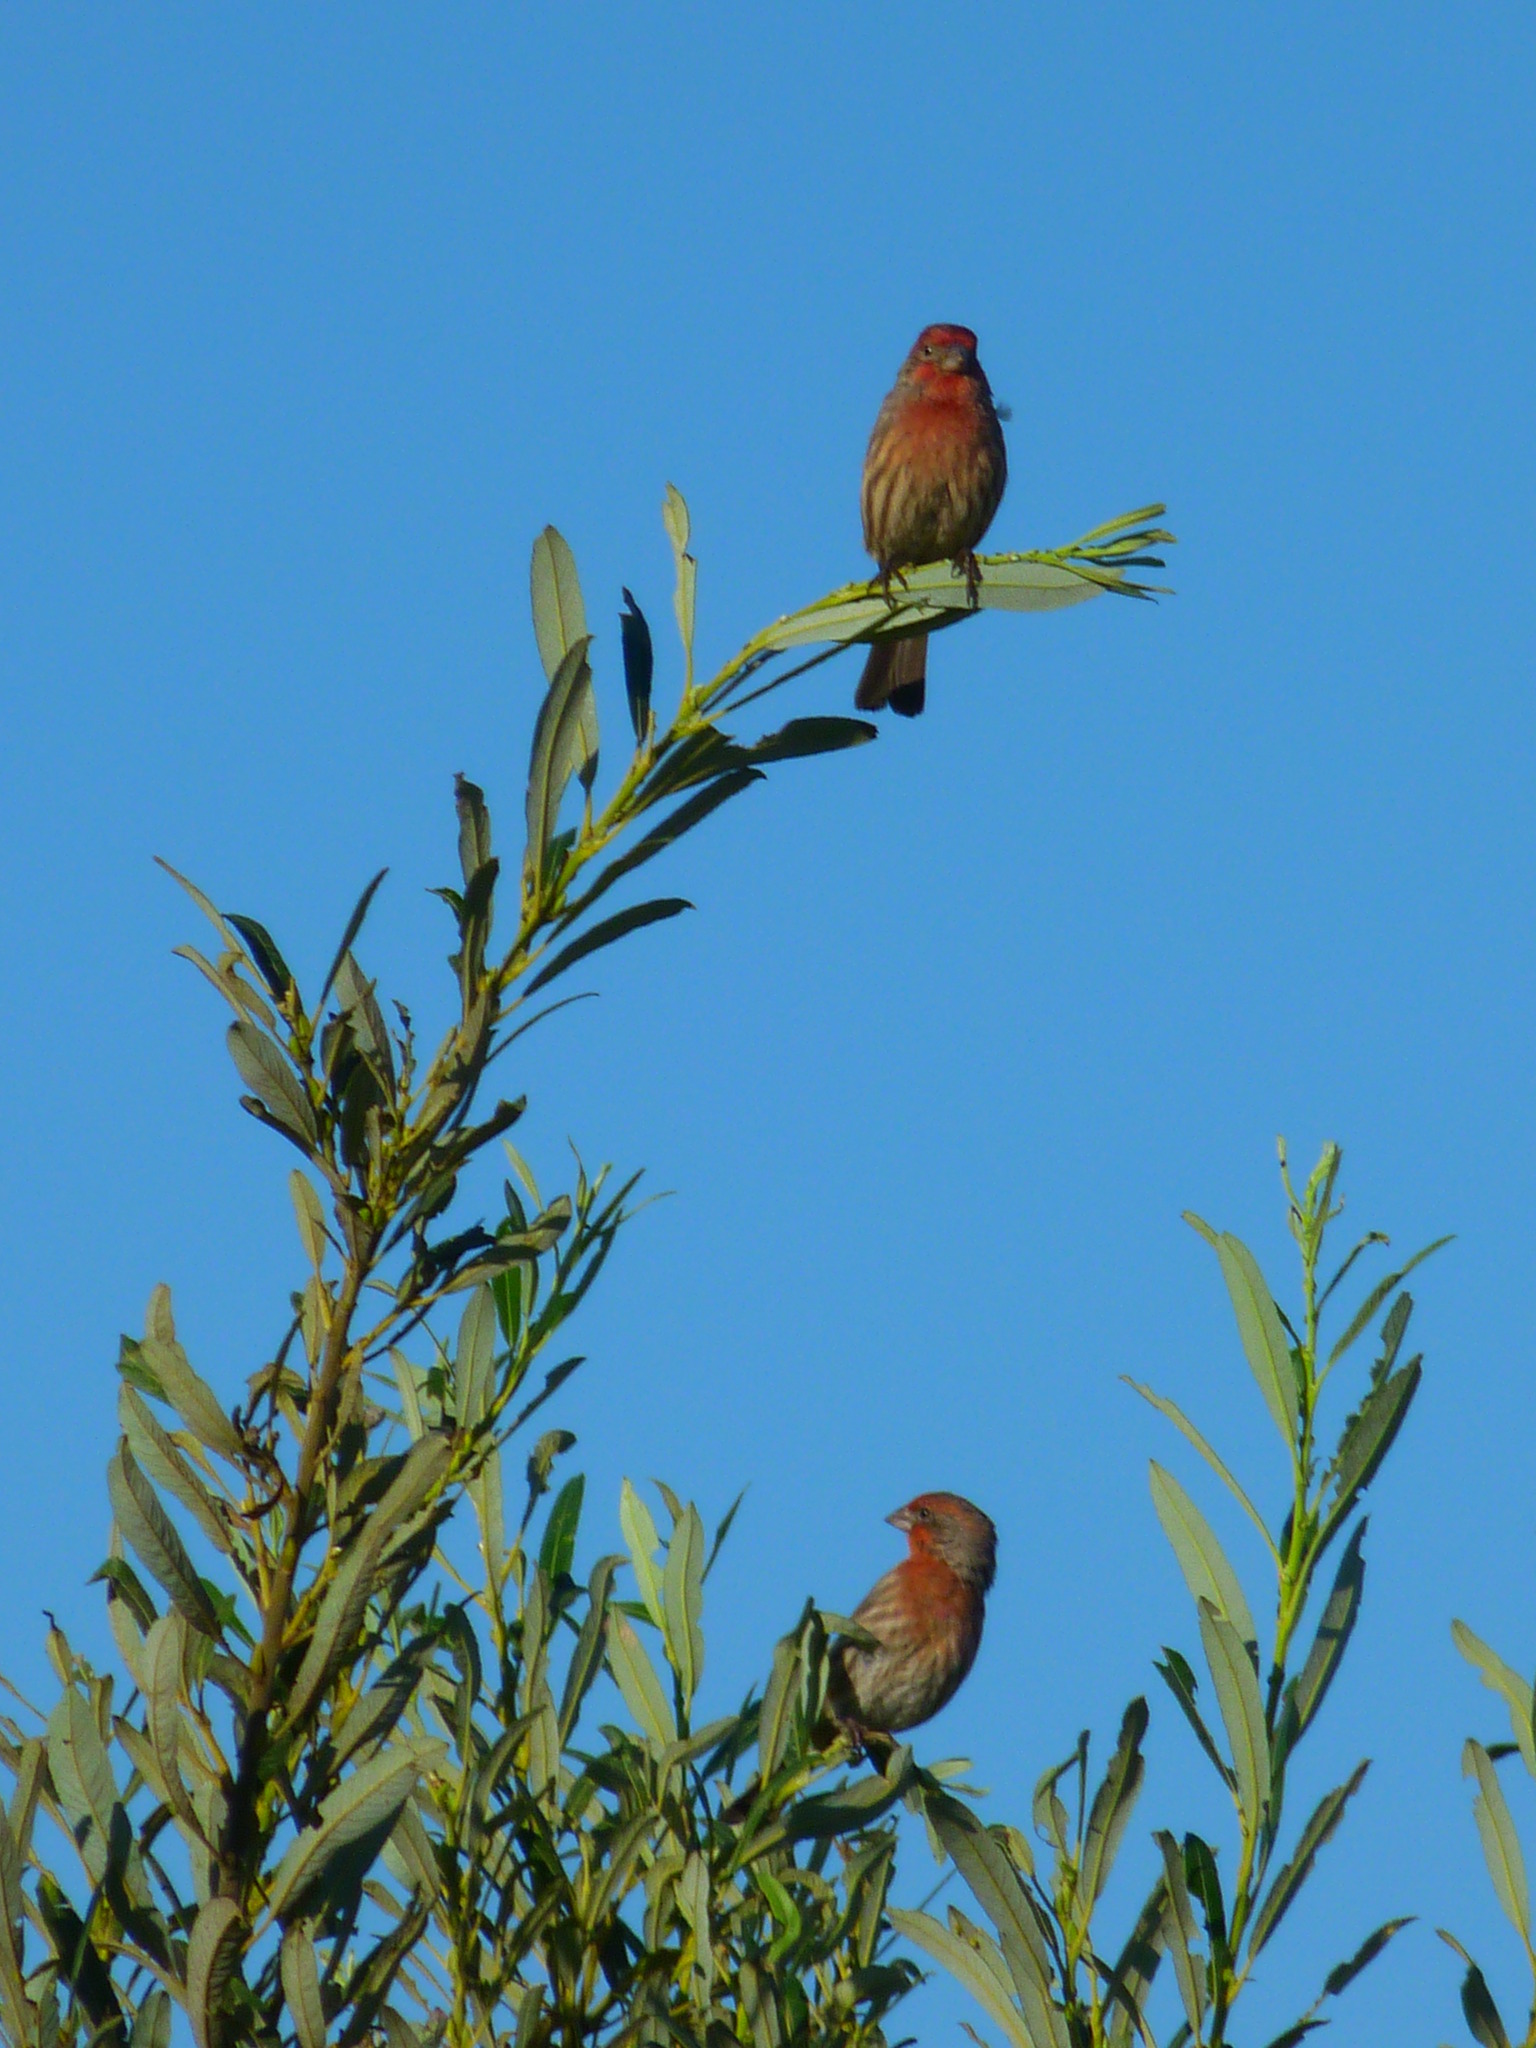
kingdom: Animalia
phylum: Chordata
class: Aves
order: Passeriformes
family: Fringillidae
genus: Haemorhous
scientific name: Haemorhous mexicanus
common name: House finch
